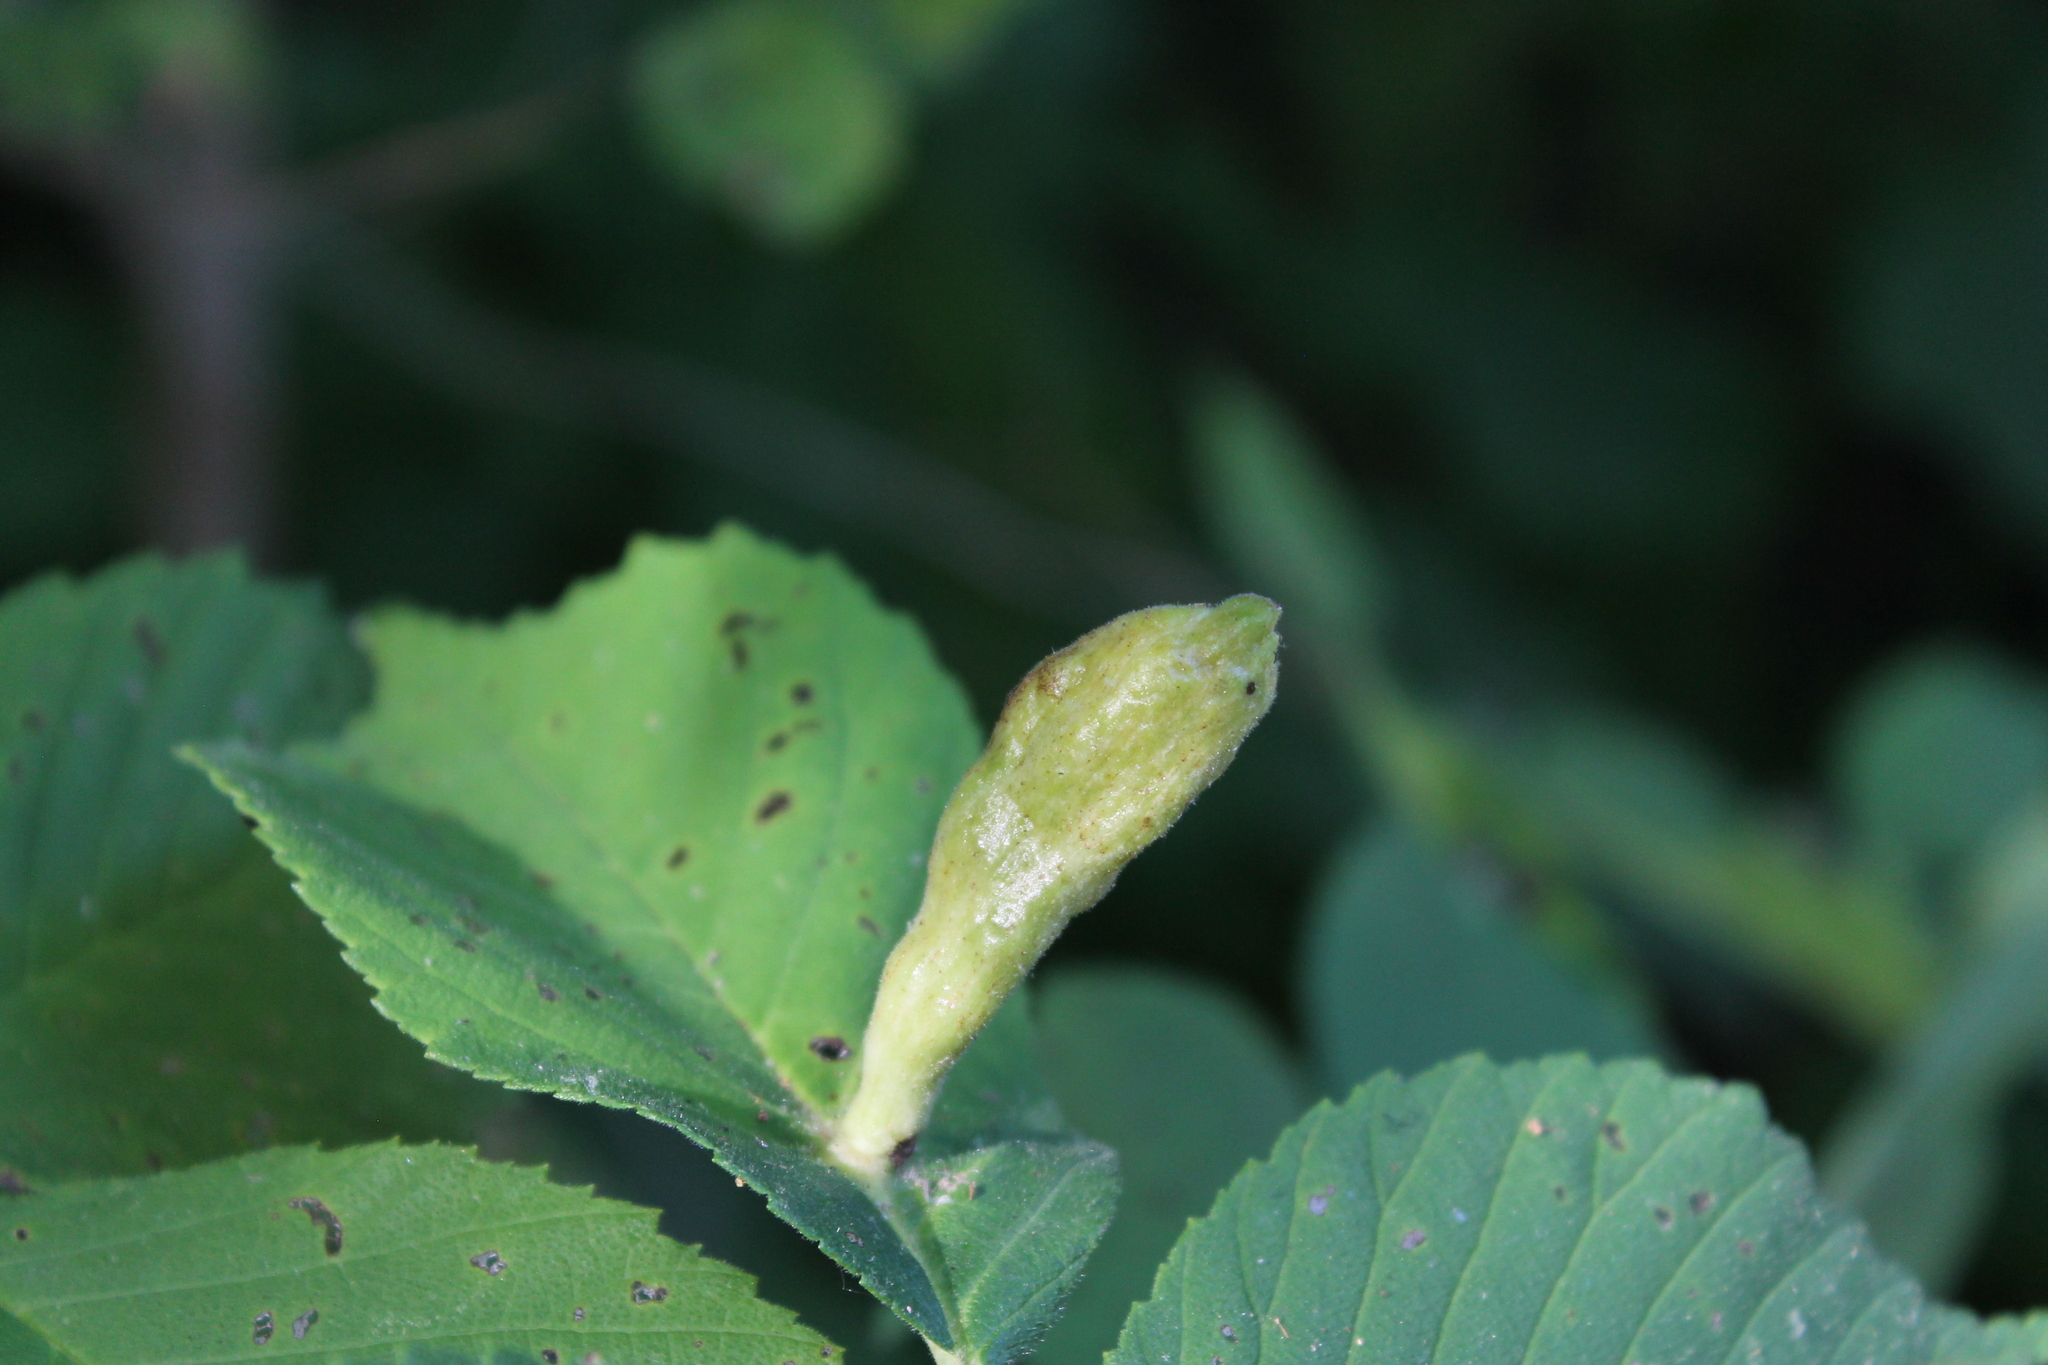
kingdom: Animalia
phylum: Arthropoda
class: Insecta
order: Hemiptera
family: Aphididae
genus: Kaltenbachiella
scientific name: Kaltenbachiella ulmifusa
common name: Elm pouchgall aphid
